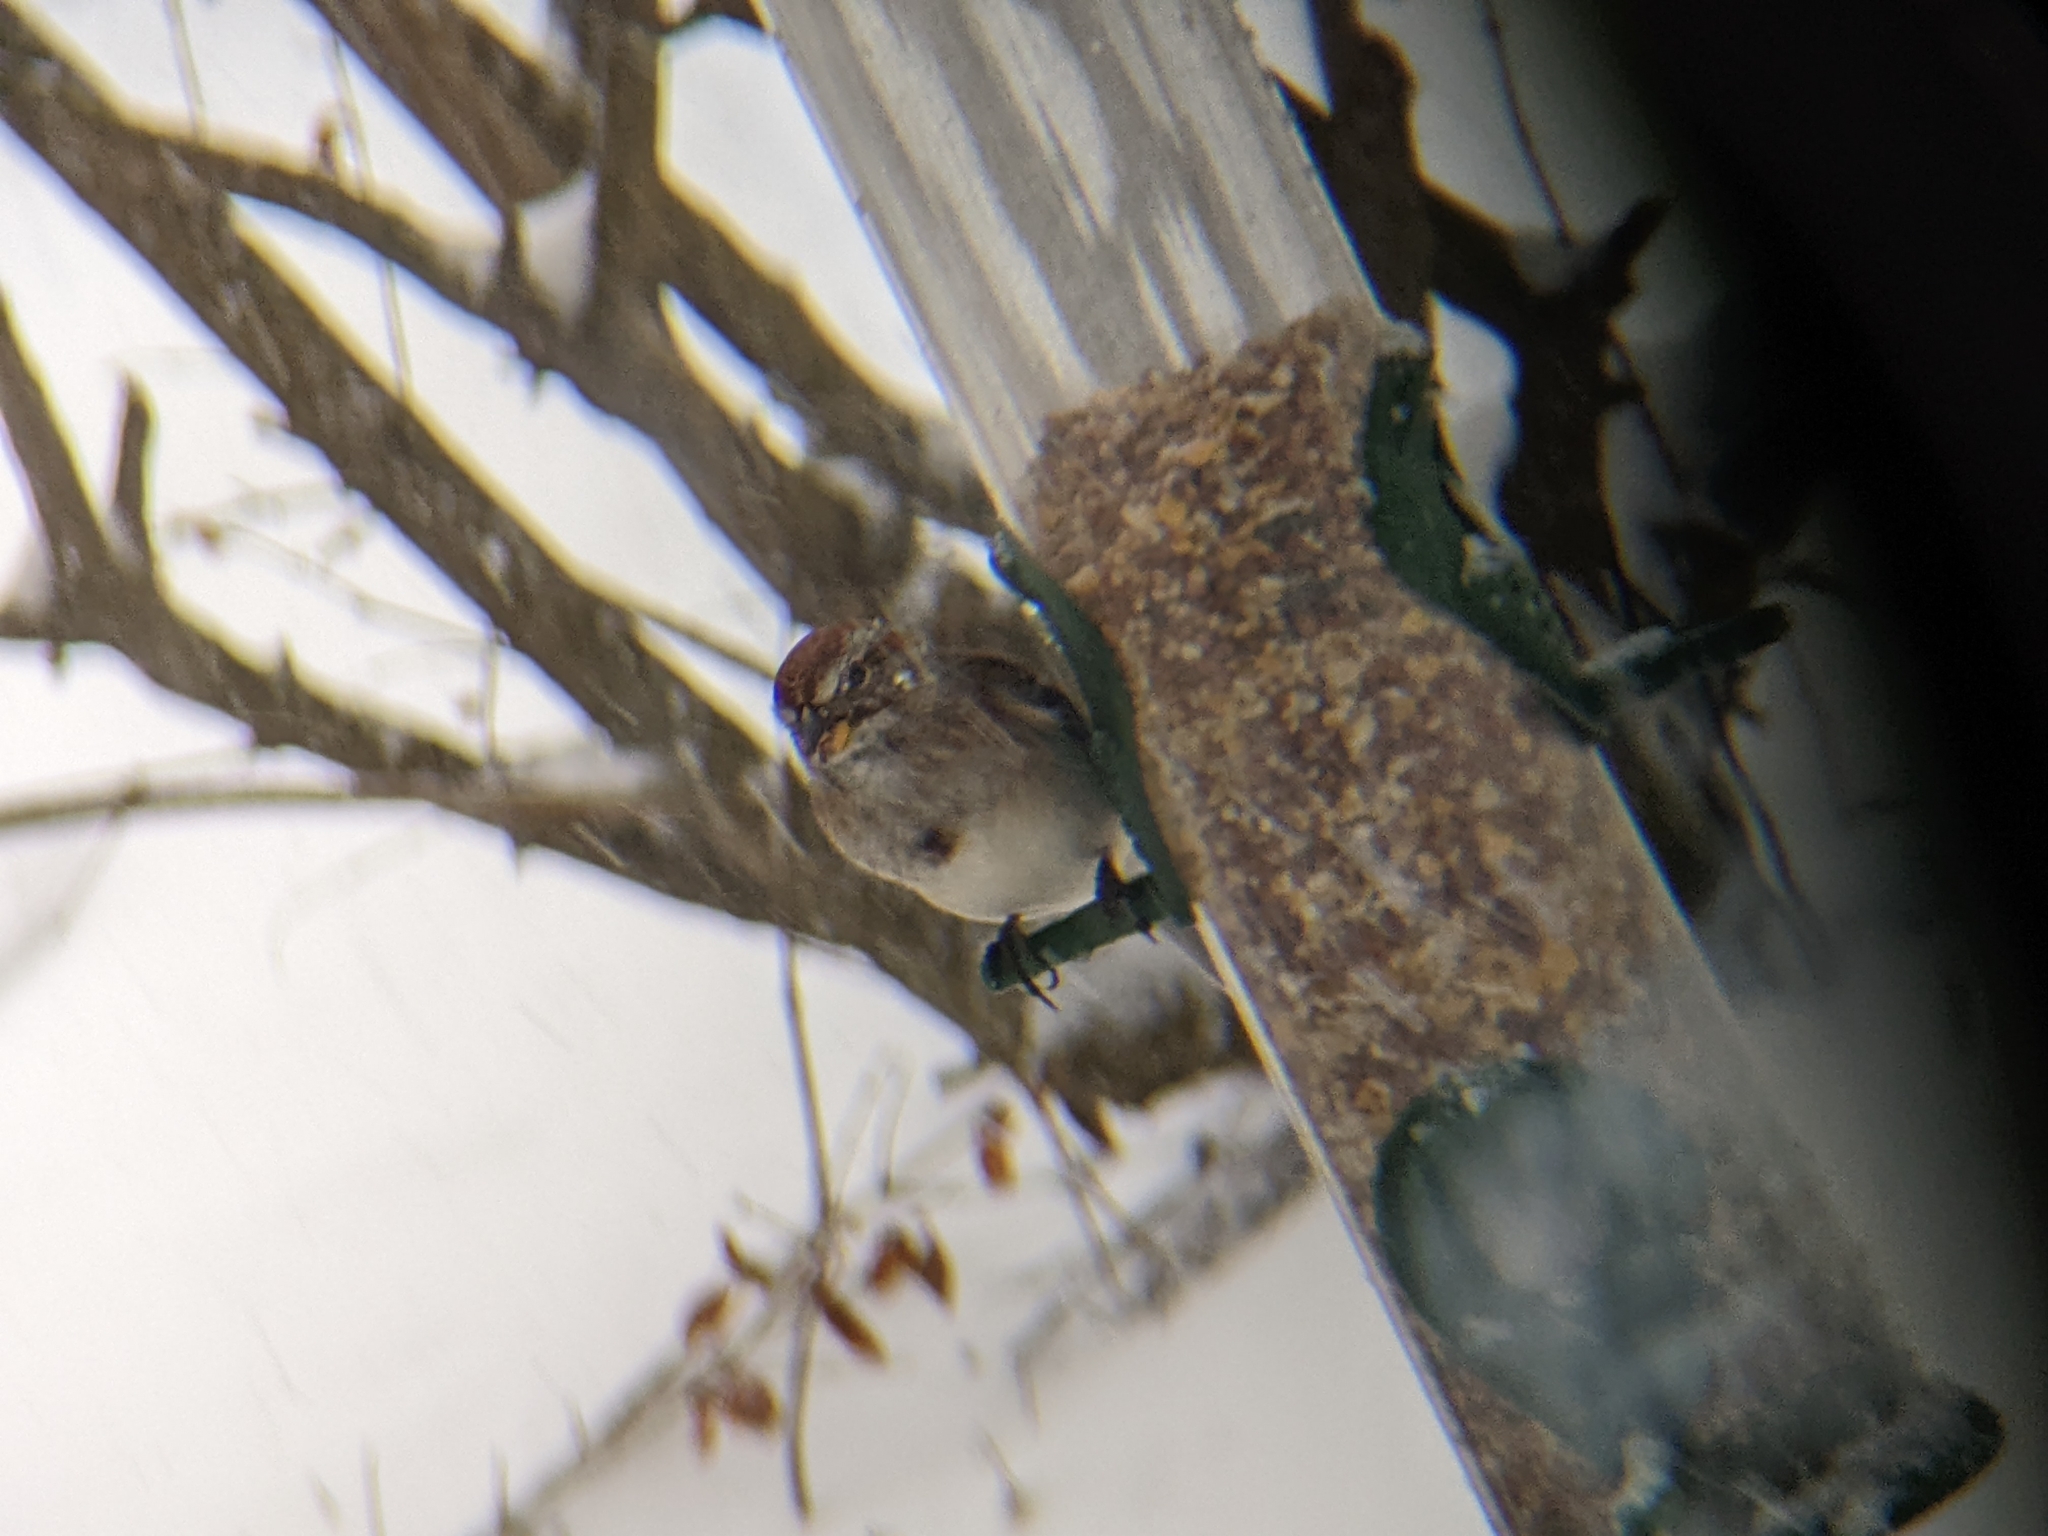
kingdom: Animalia
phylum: Chordata
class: Aves
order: Passeriformes
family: Passerellidae
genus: Spizelloides
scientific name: Spizelloides arborea
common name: American tree sparrow
